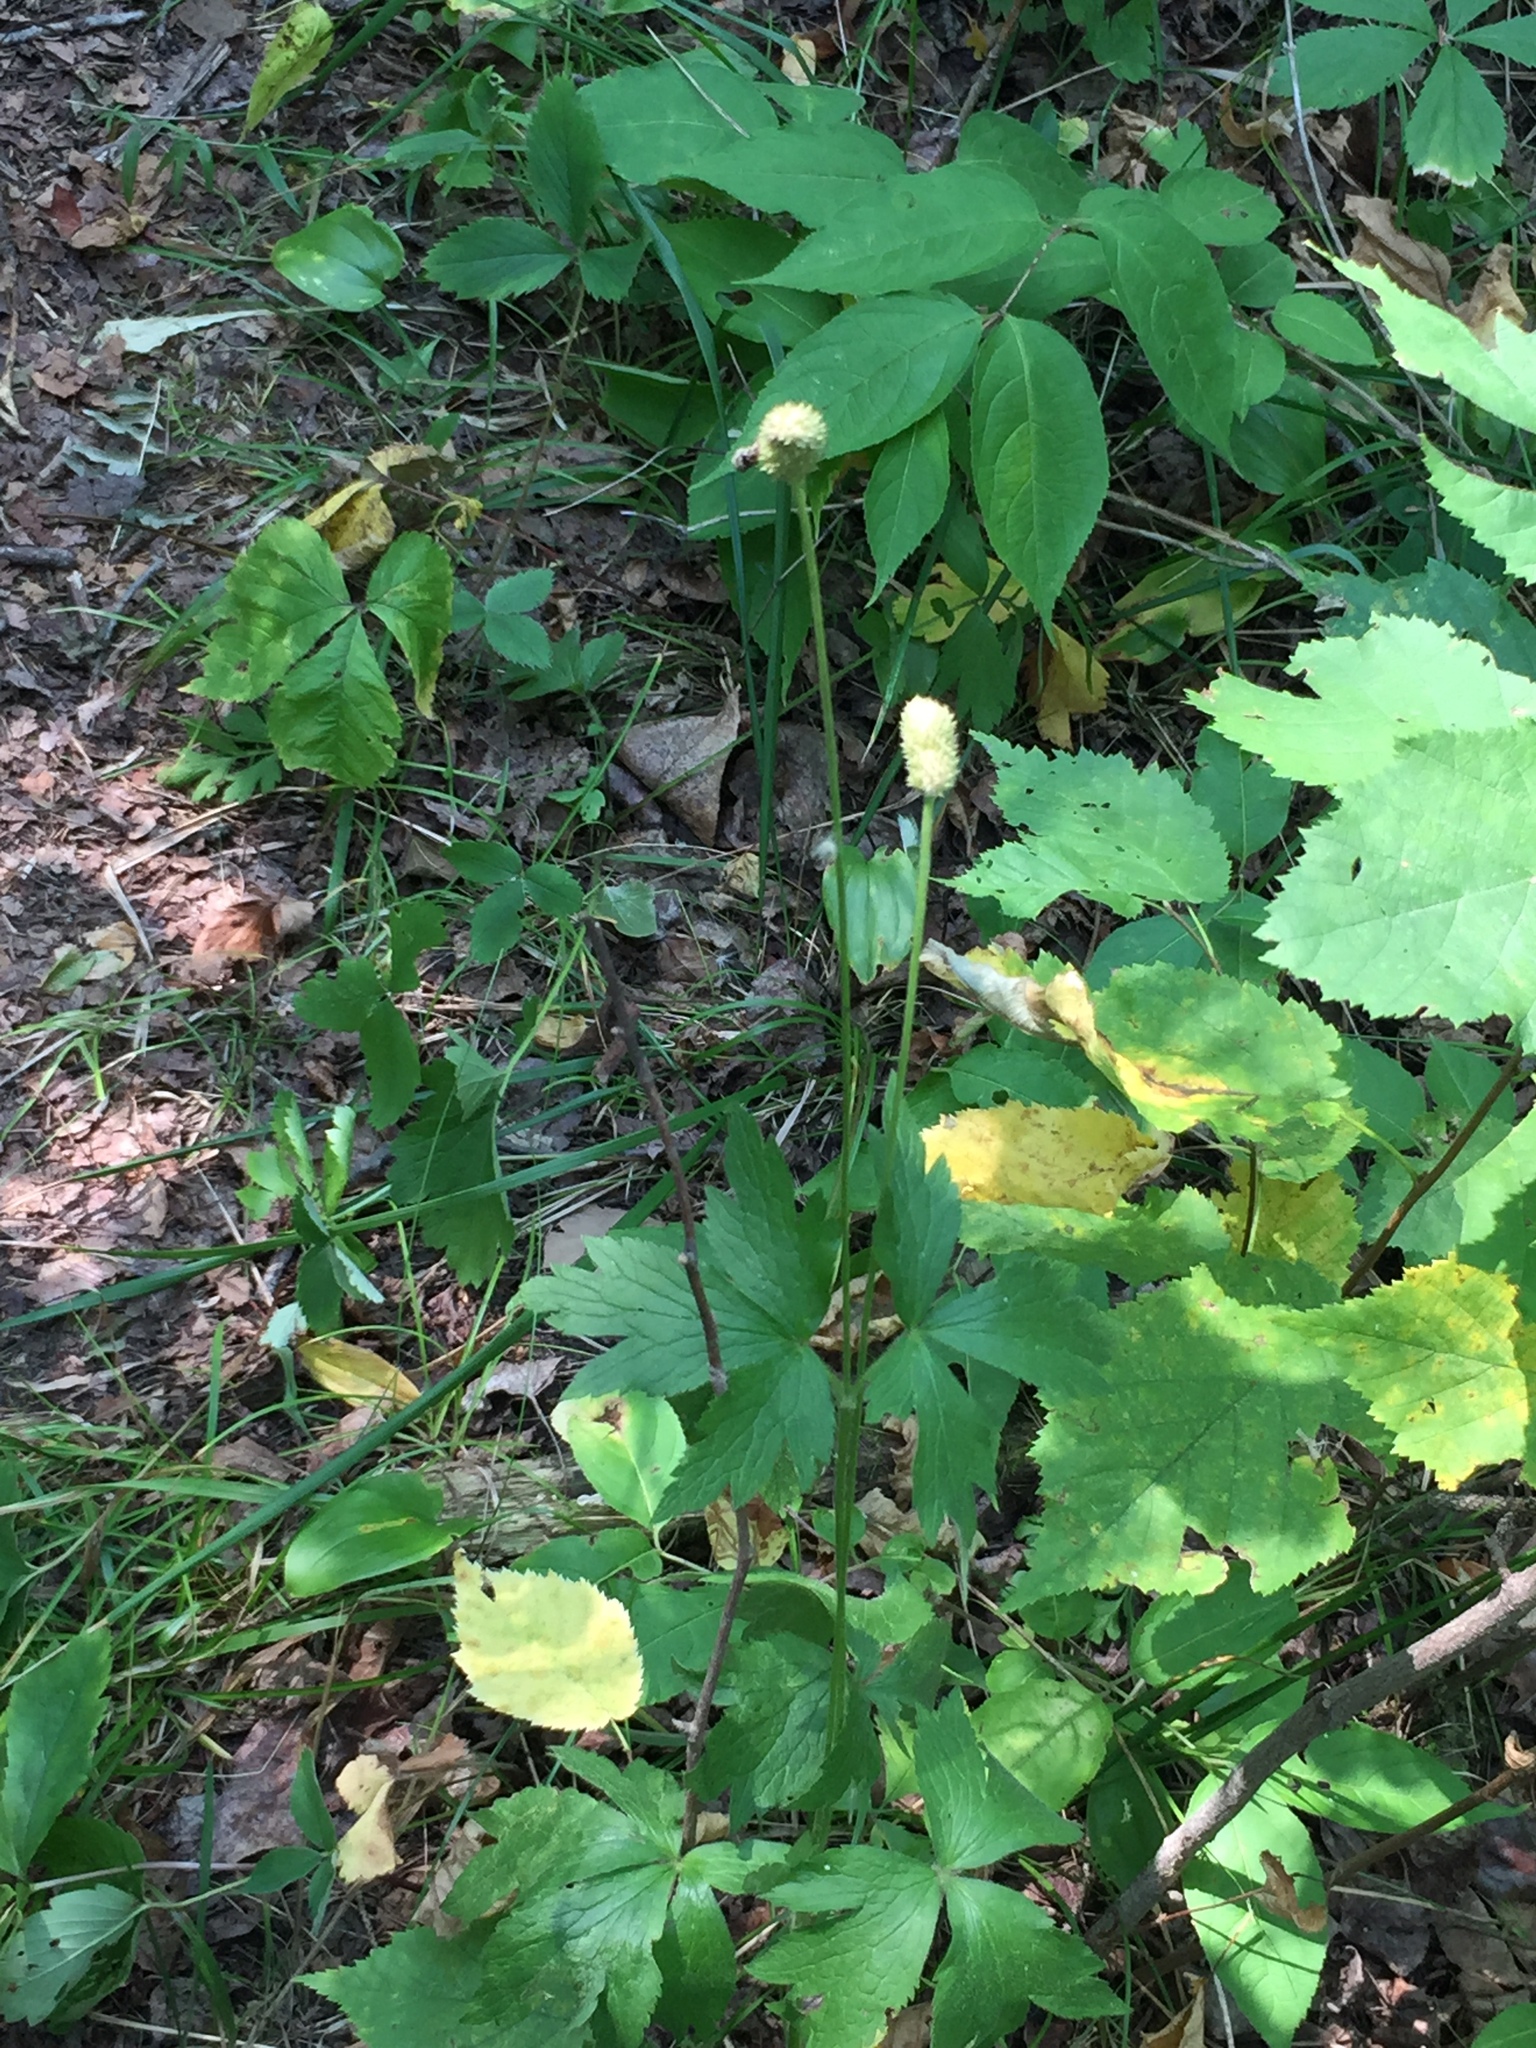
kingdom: Plantae
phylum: Tracheophyta
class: Magnoliopsida
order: Ranunculales
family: Ranunculaceae
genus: Anemone
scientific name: Anemone virginiana
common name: Tall anemone
